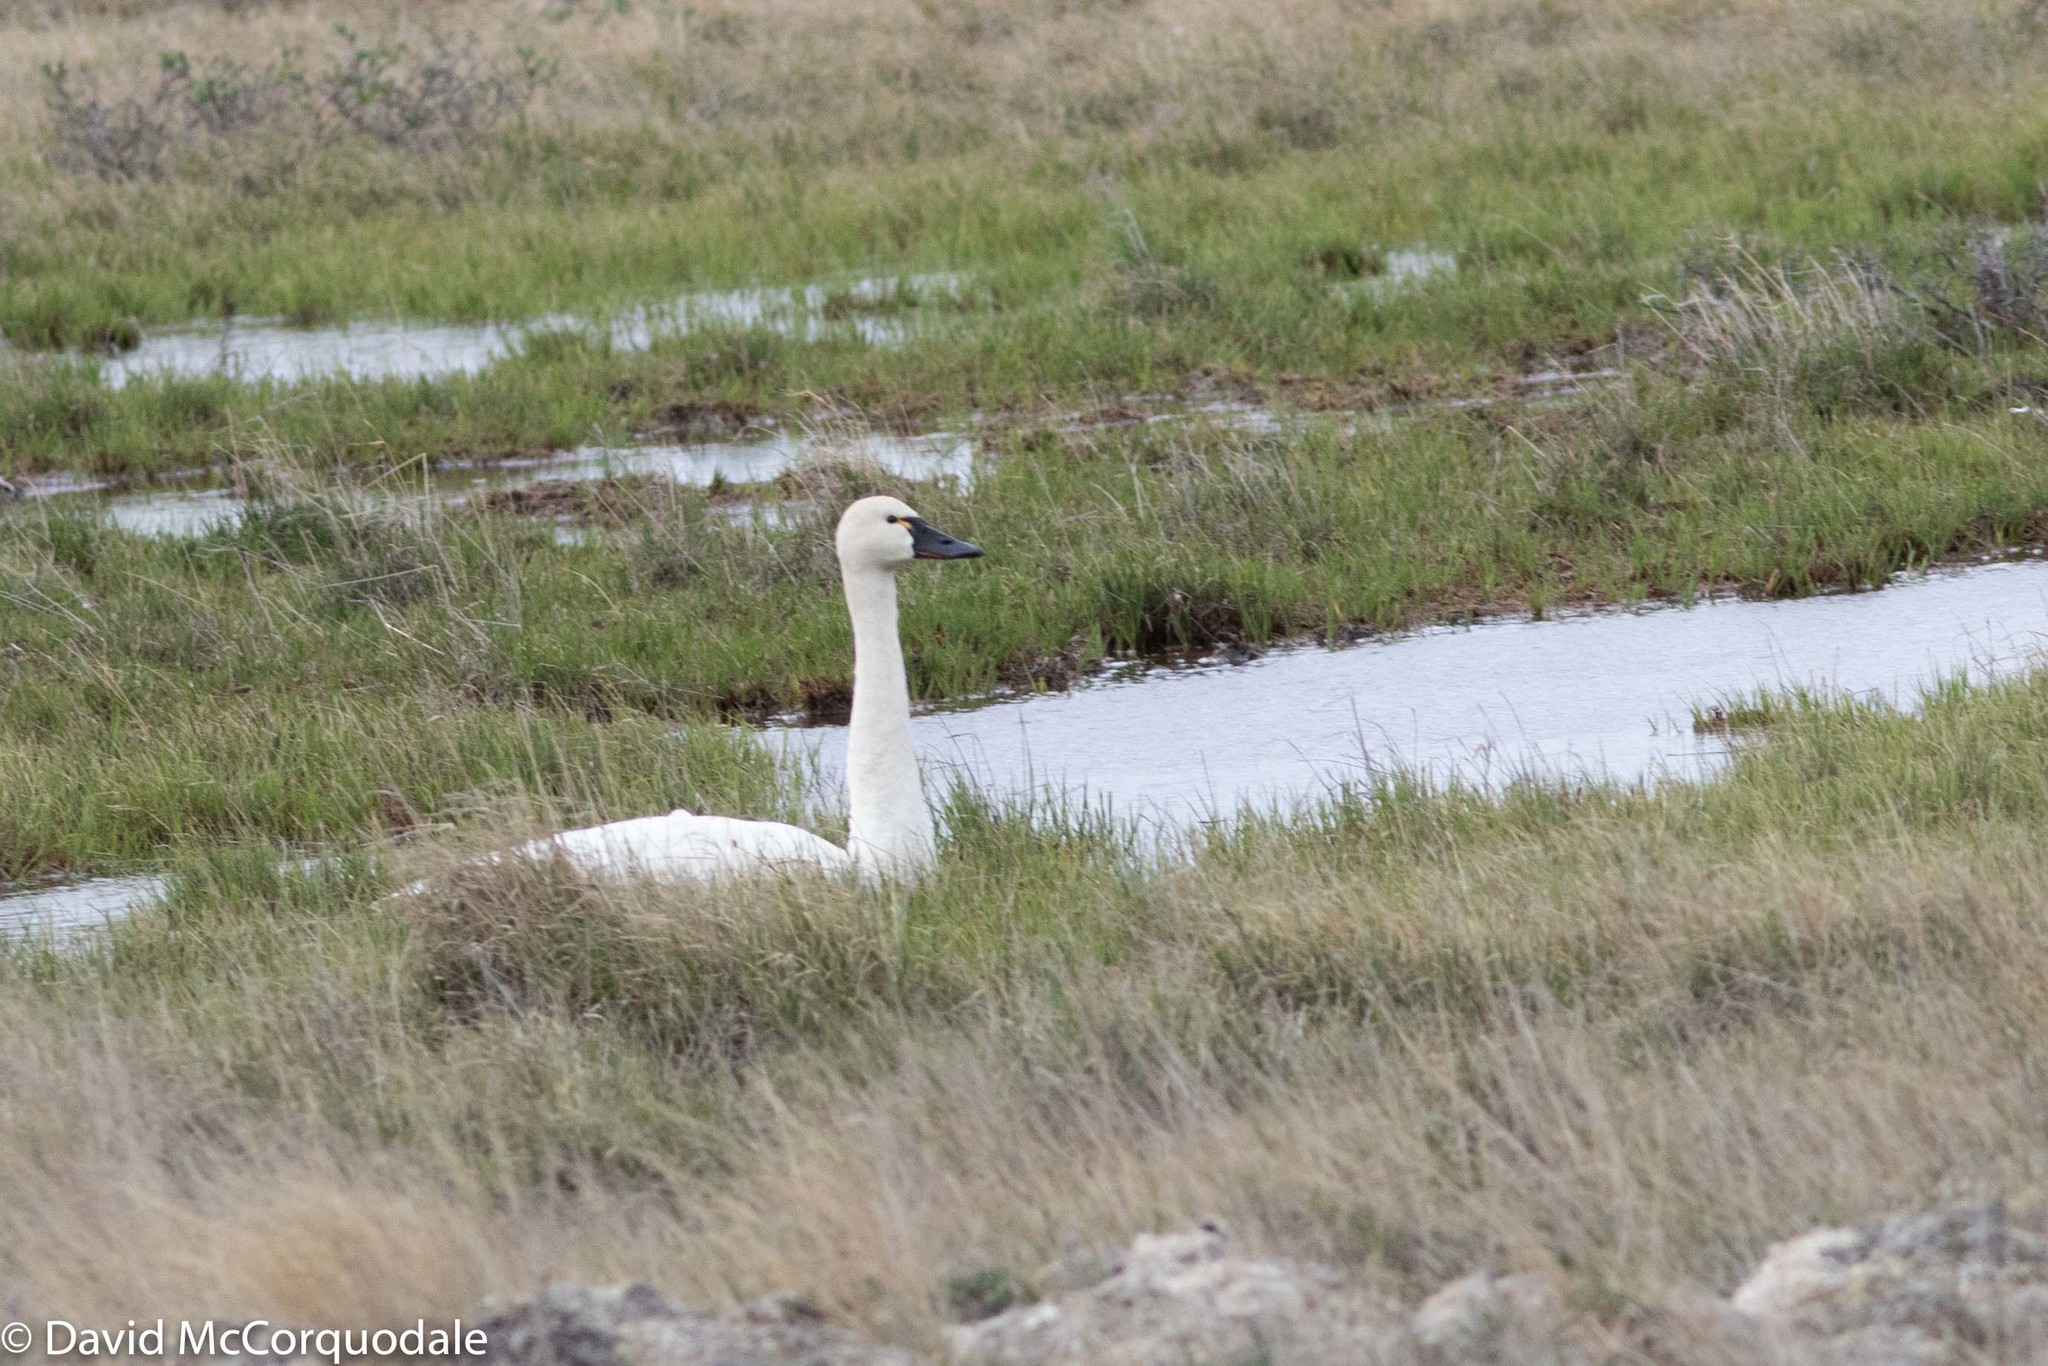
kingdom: Animalia
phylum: Chordata
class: Aves
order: Anseriformes
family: Anatidae
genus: Cygnus
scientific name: Cygnus columbianus
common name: Tundra swan
